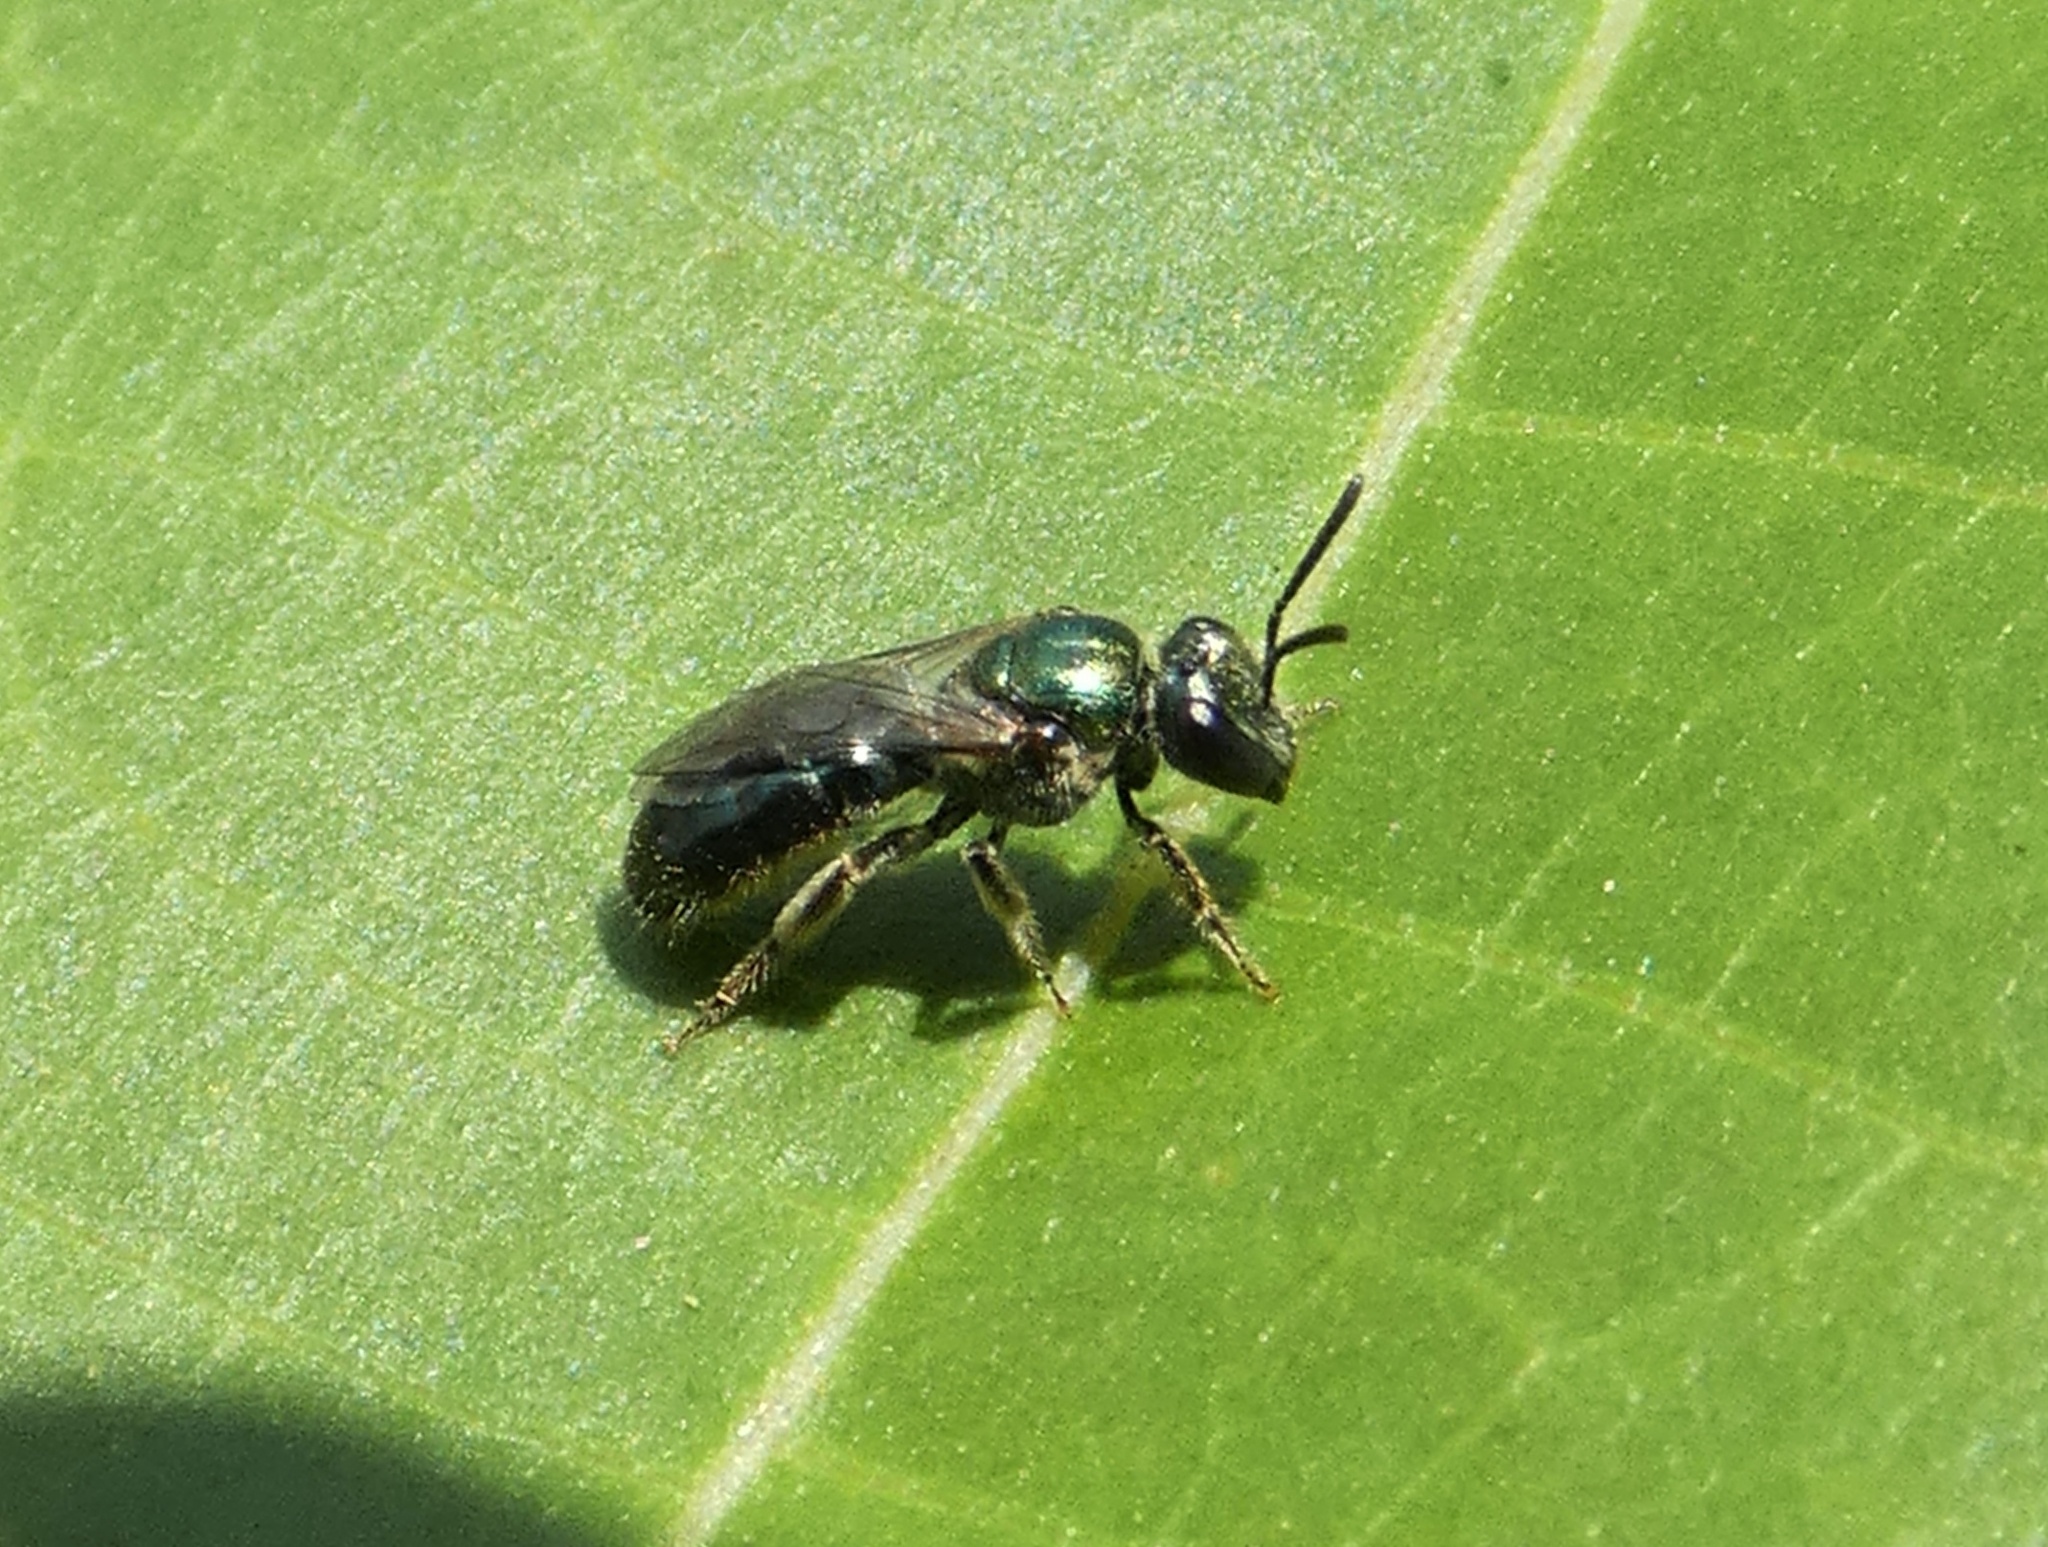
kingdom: Animalia
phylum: Arthropoda
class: Insecta
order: Hymenoptera
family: Halictidae
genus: Lasioglossum
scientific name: Lasioglossum flindersi
